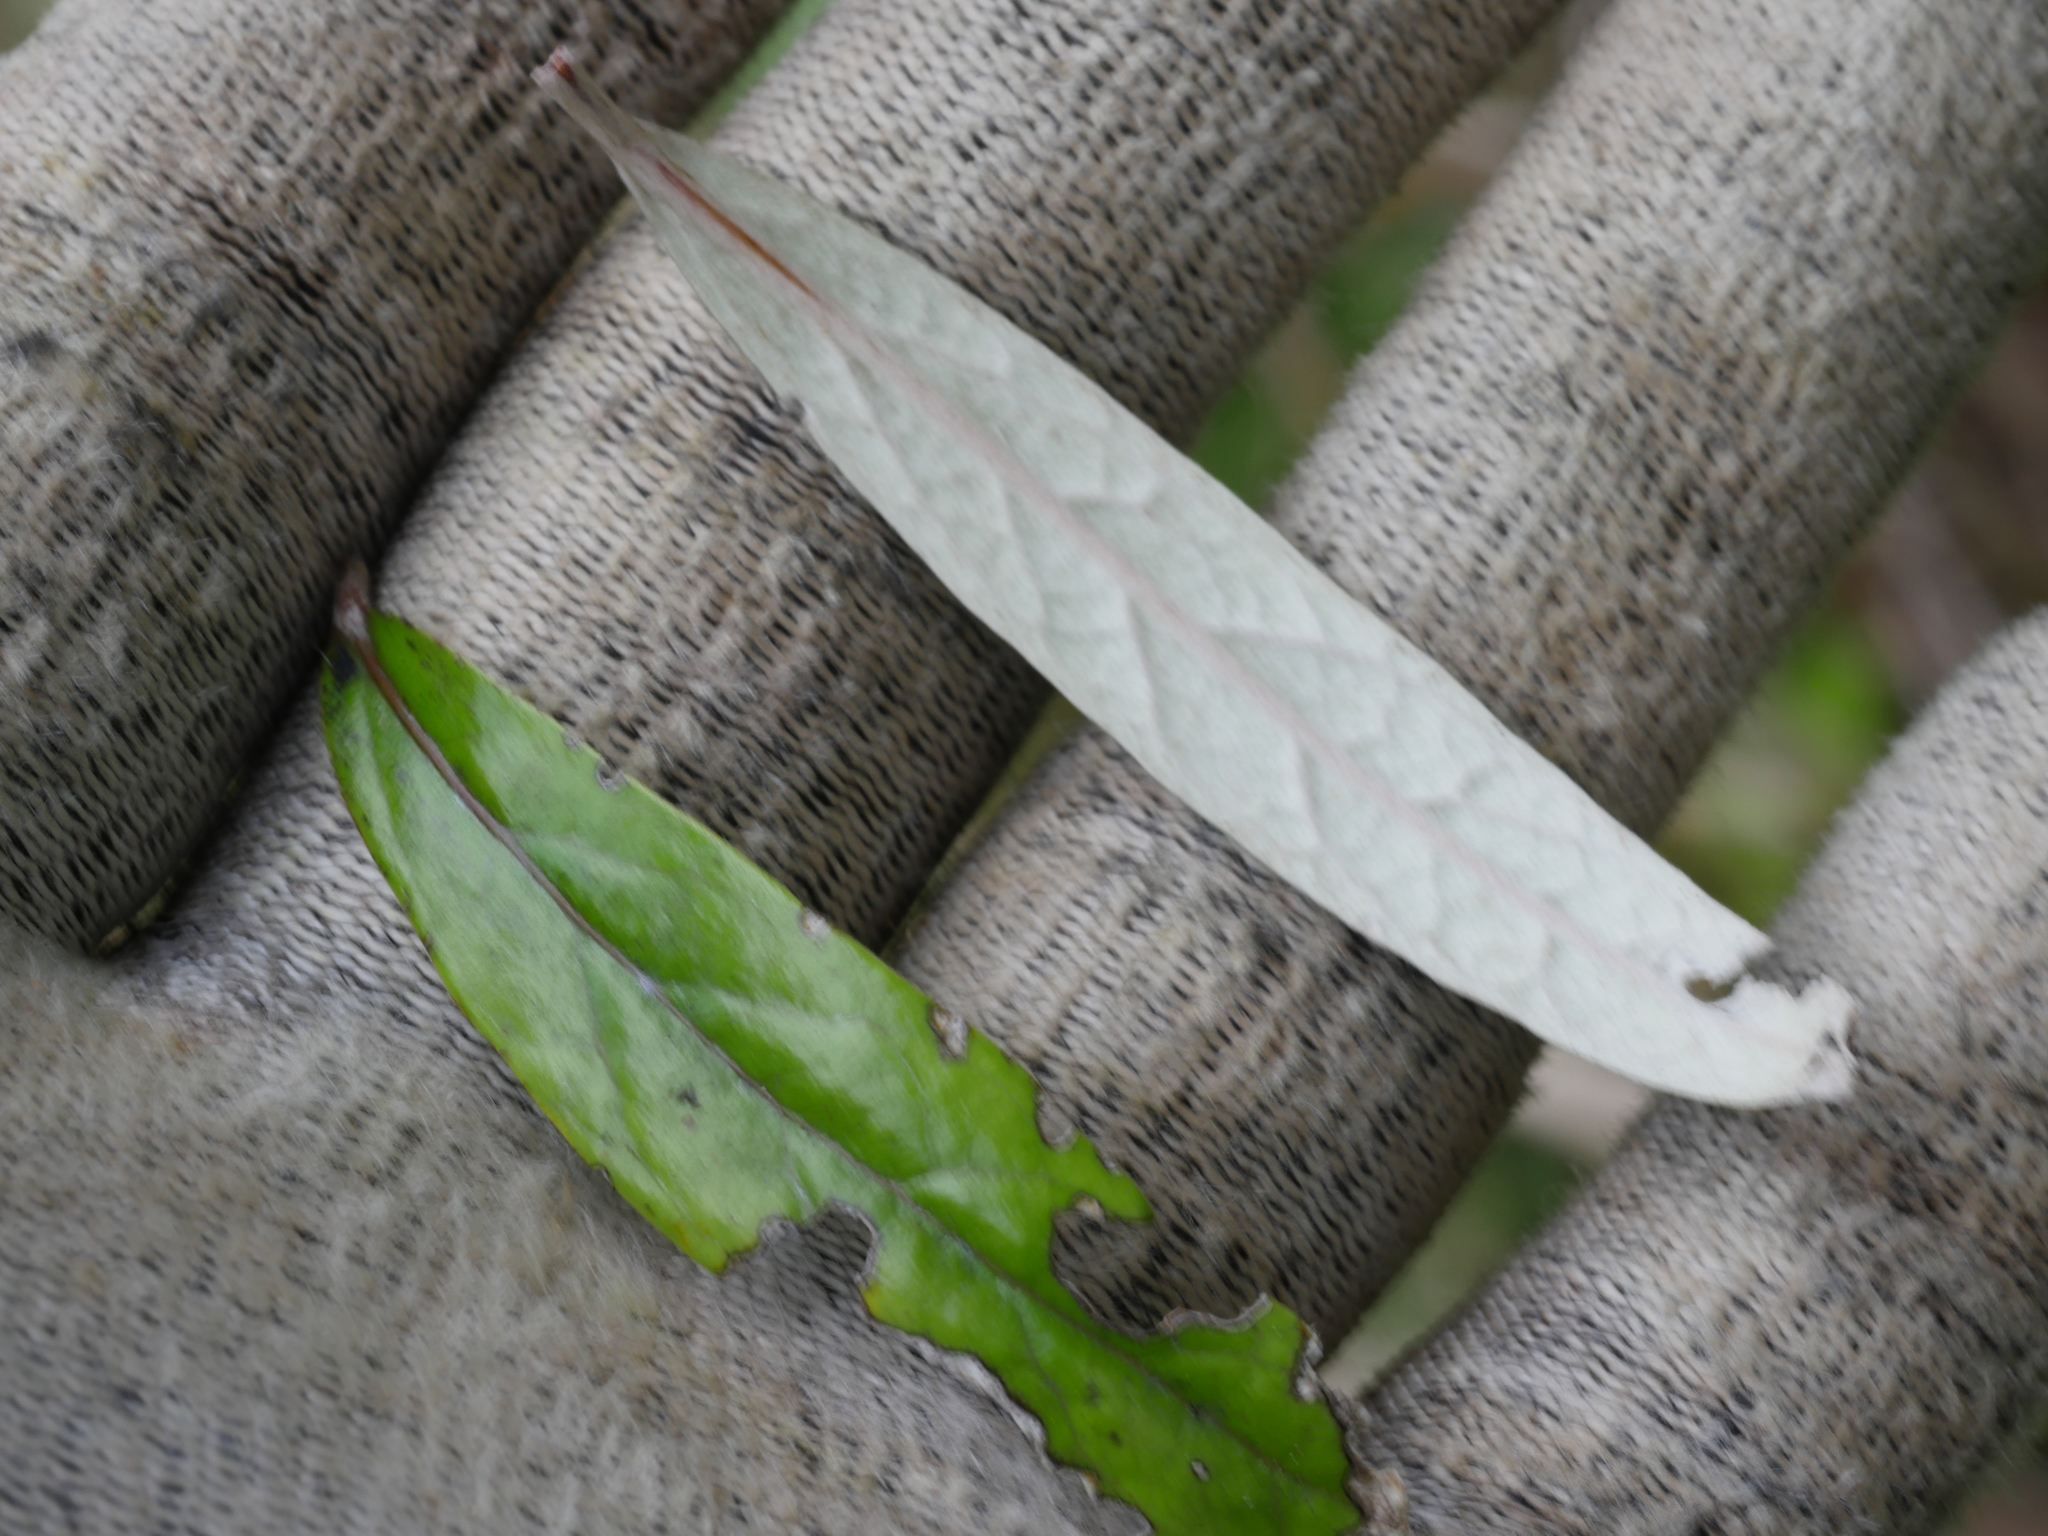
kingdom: Plantae
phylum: Tracheophyta
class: Magnoliopsida
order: Asterales
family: Argophyllaceae
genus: Corokia
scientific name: Corokia buddleioides
